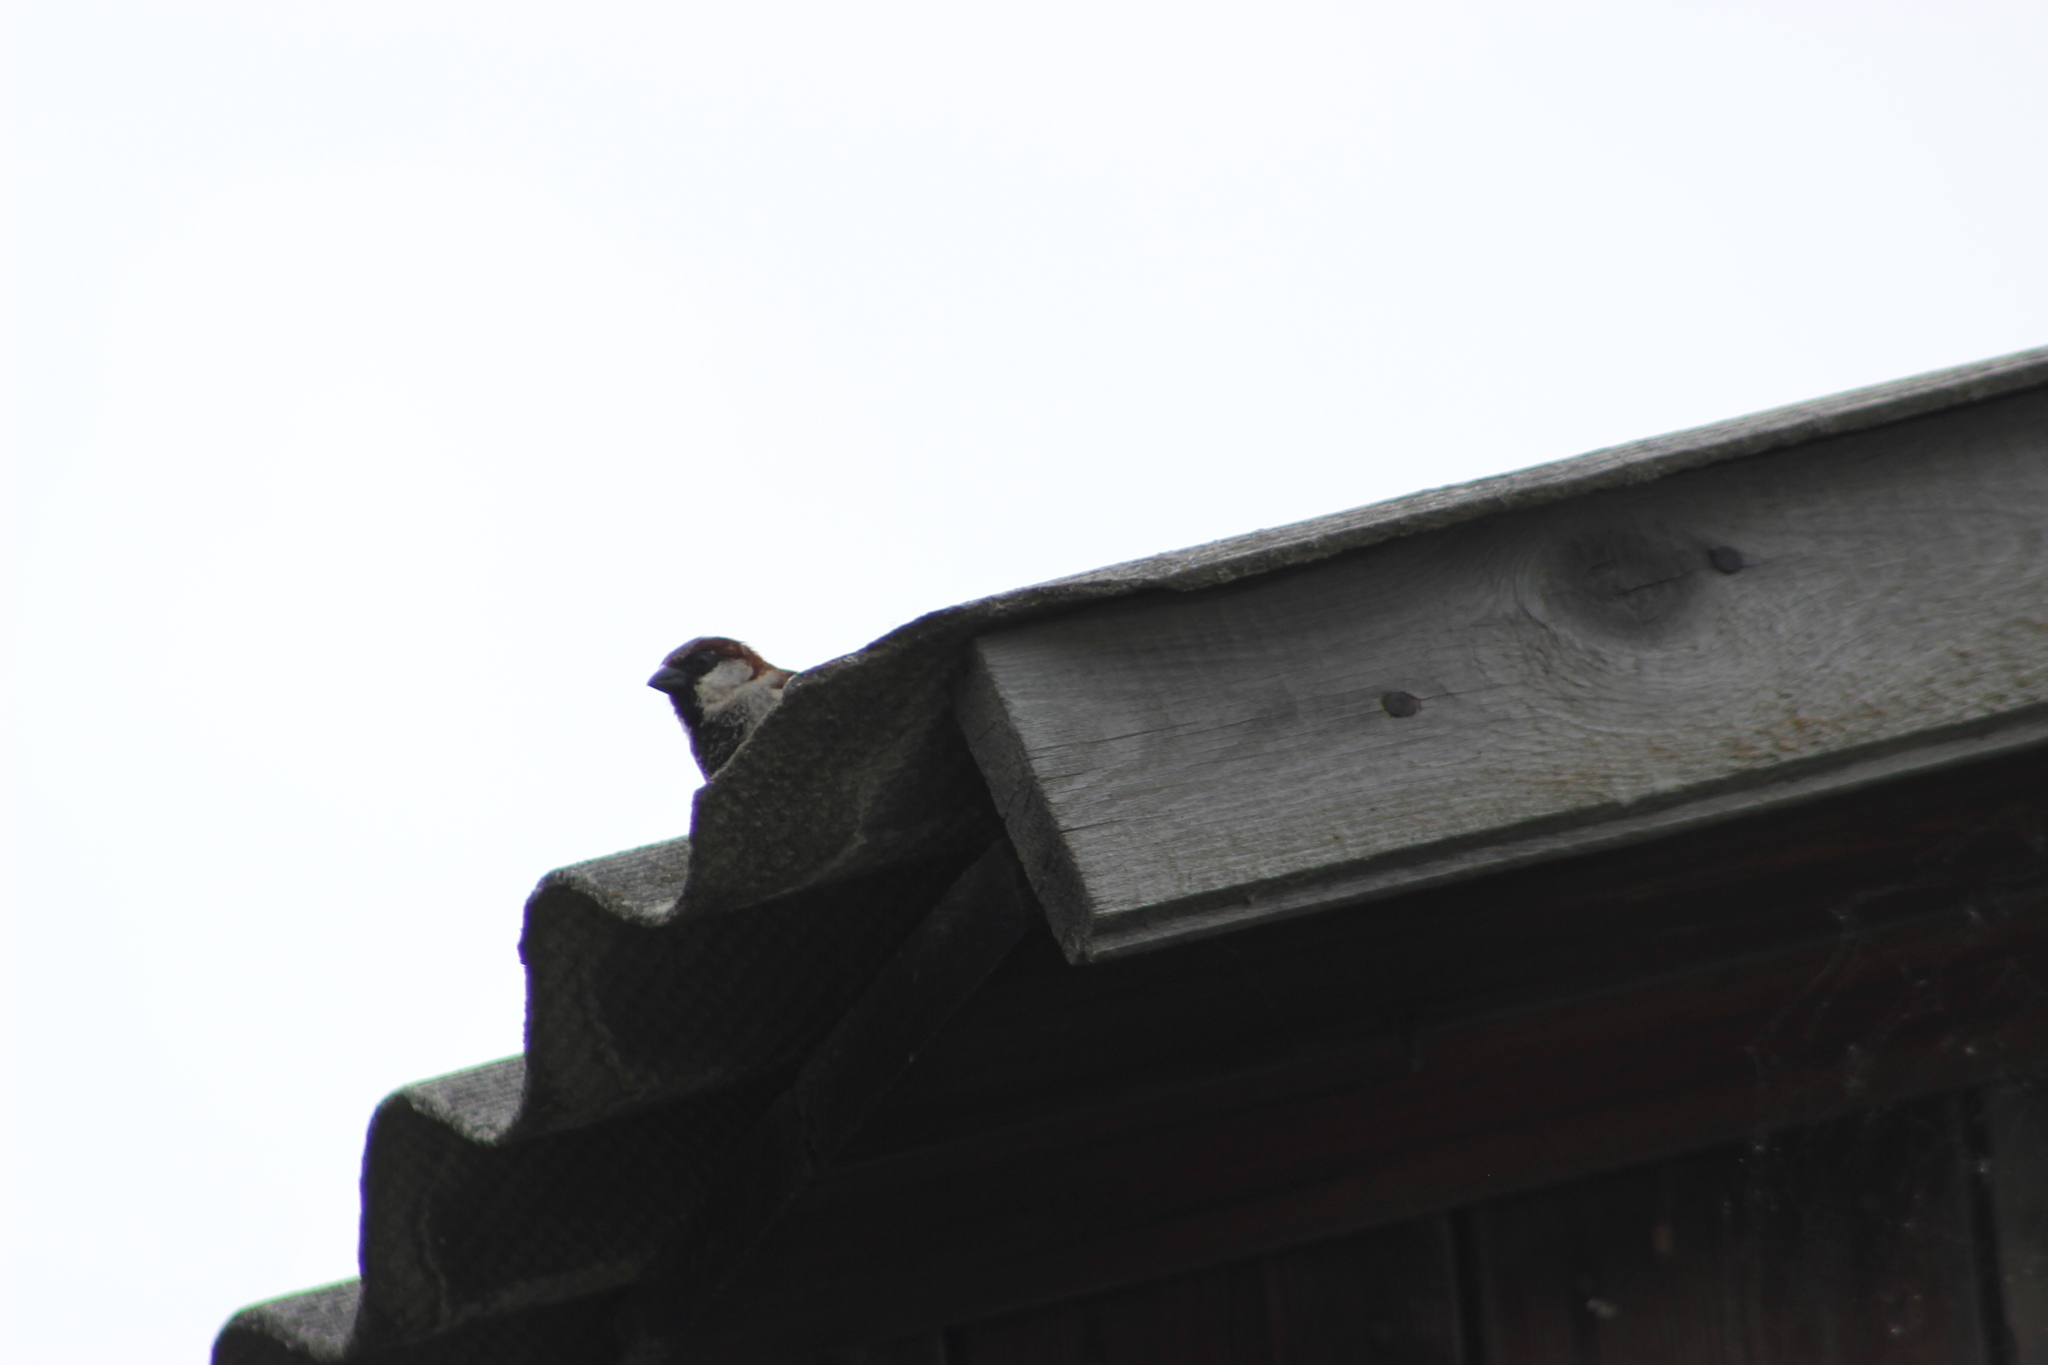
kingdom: Animalia
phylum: Chordata
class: Aves
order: Passeriformes
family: Passeridae
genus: Passer
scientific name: Passer domesticus
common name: House sparrow
